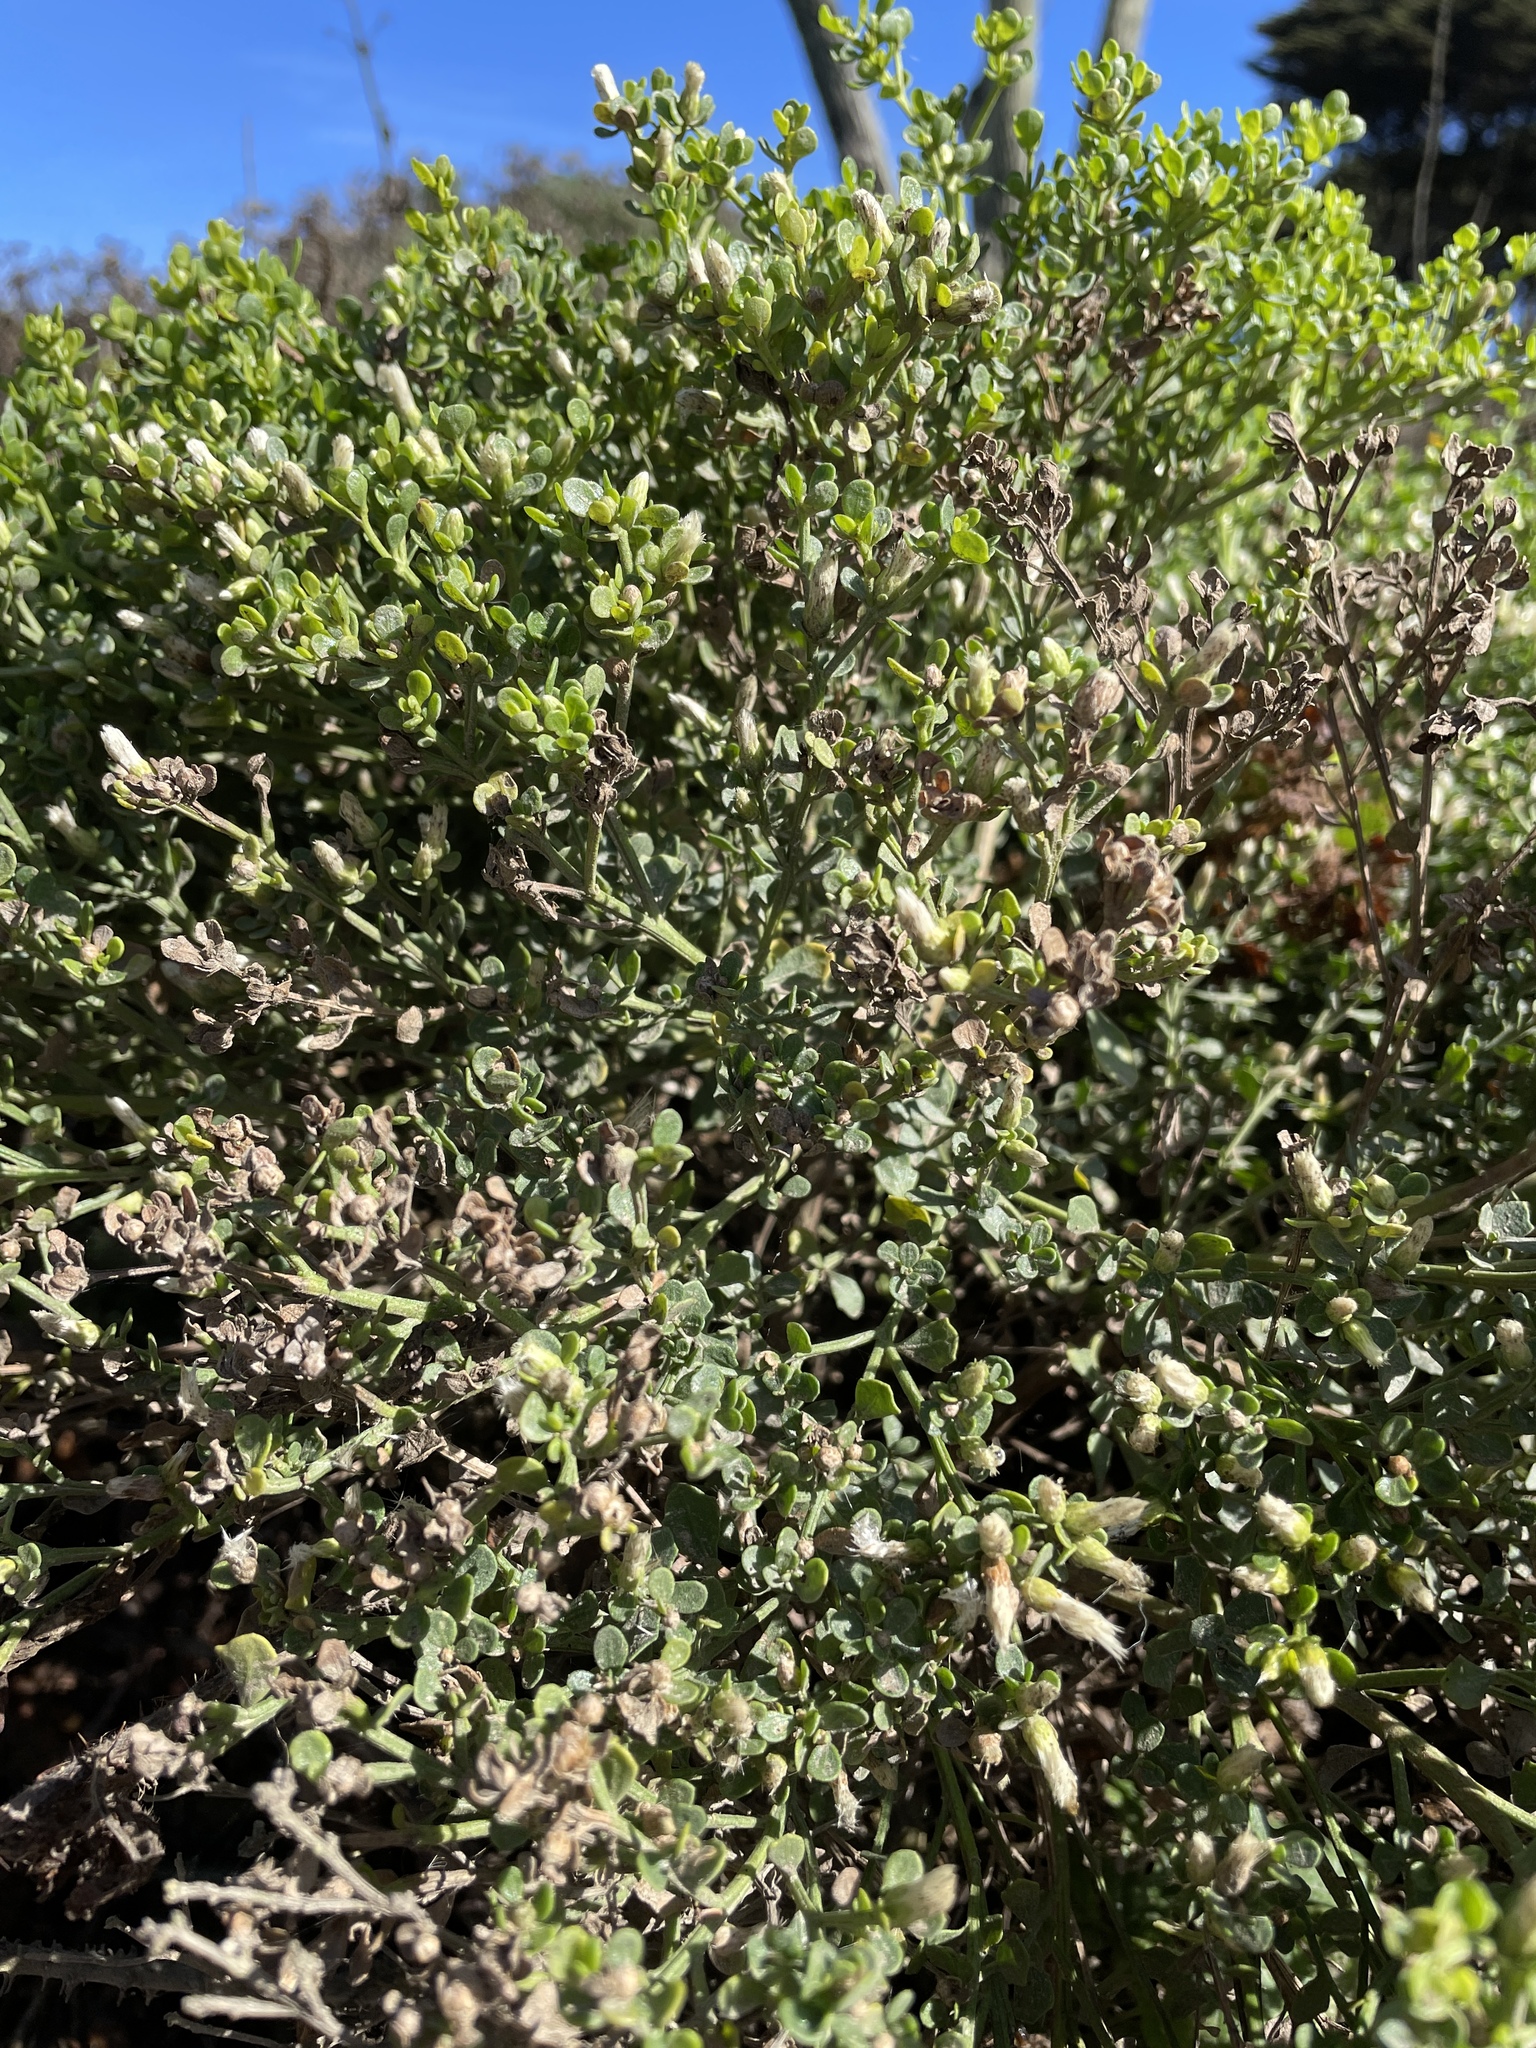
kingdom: Plantae
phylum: Tracheophyta
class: Magnoliopsida
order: Asterales
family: Asteraceae
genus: Baccharis
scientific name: Baccharis pilularis
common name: Coyotebrush
